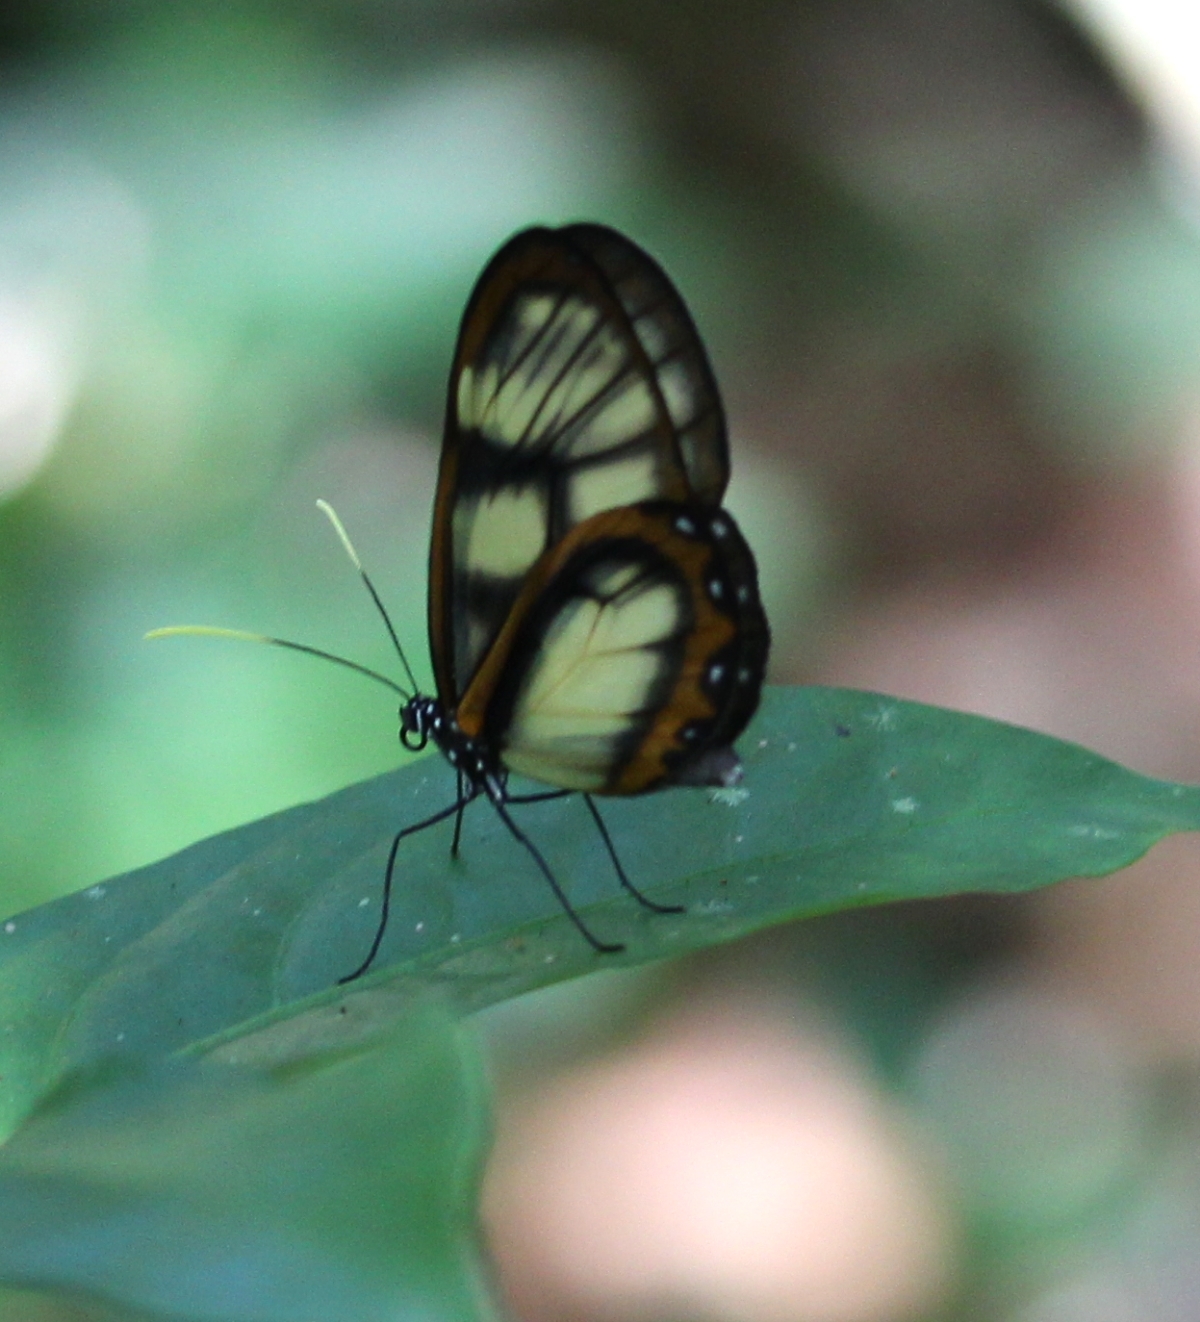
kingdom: Animalia
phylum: Arthropoda
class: Insecta
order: Lepidoptera
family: Nymphalidae
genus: Godyris
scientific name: Godyris zavaleta
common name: Zavaleta glasswing
